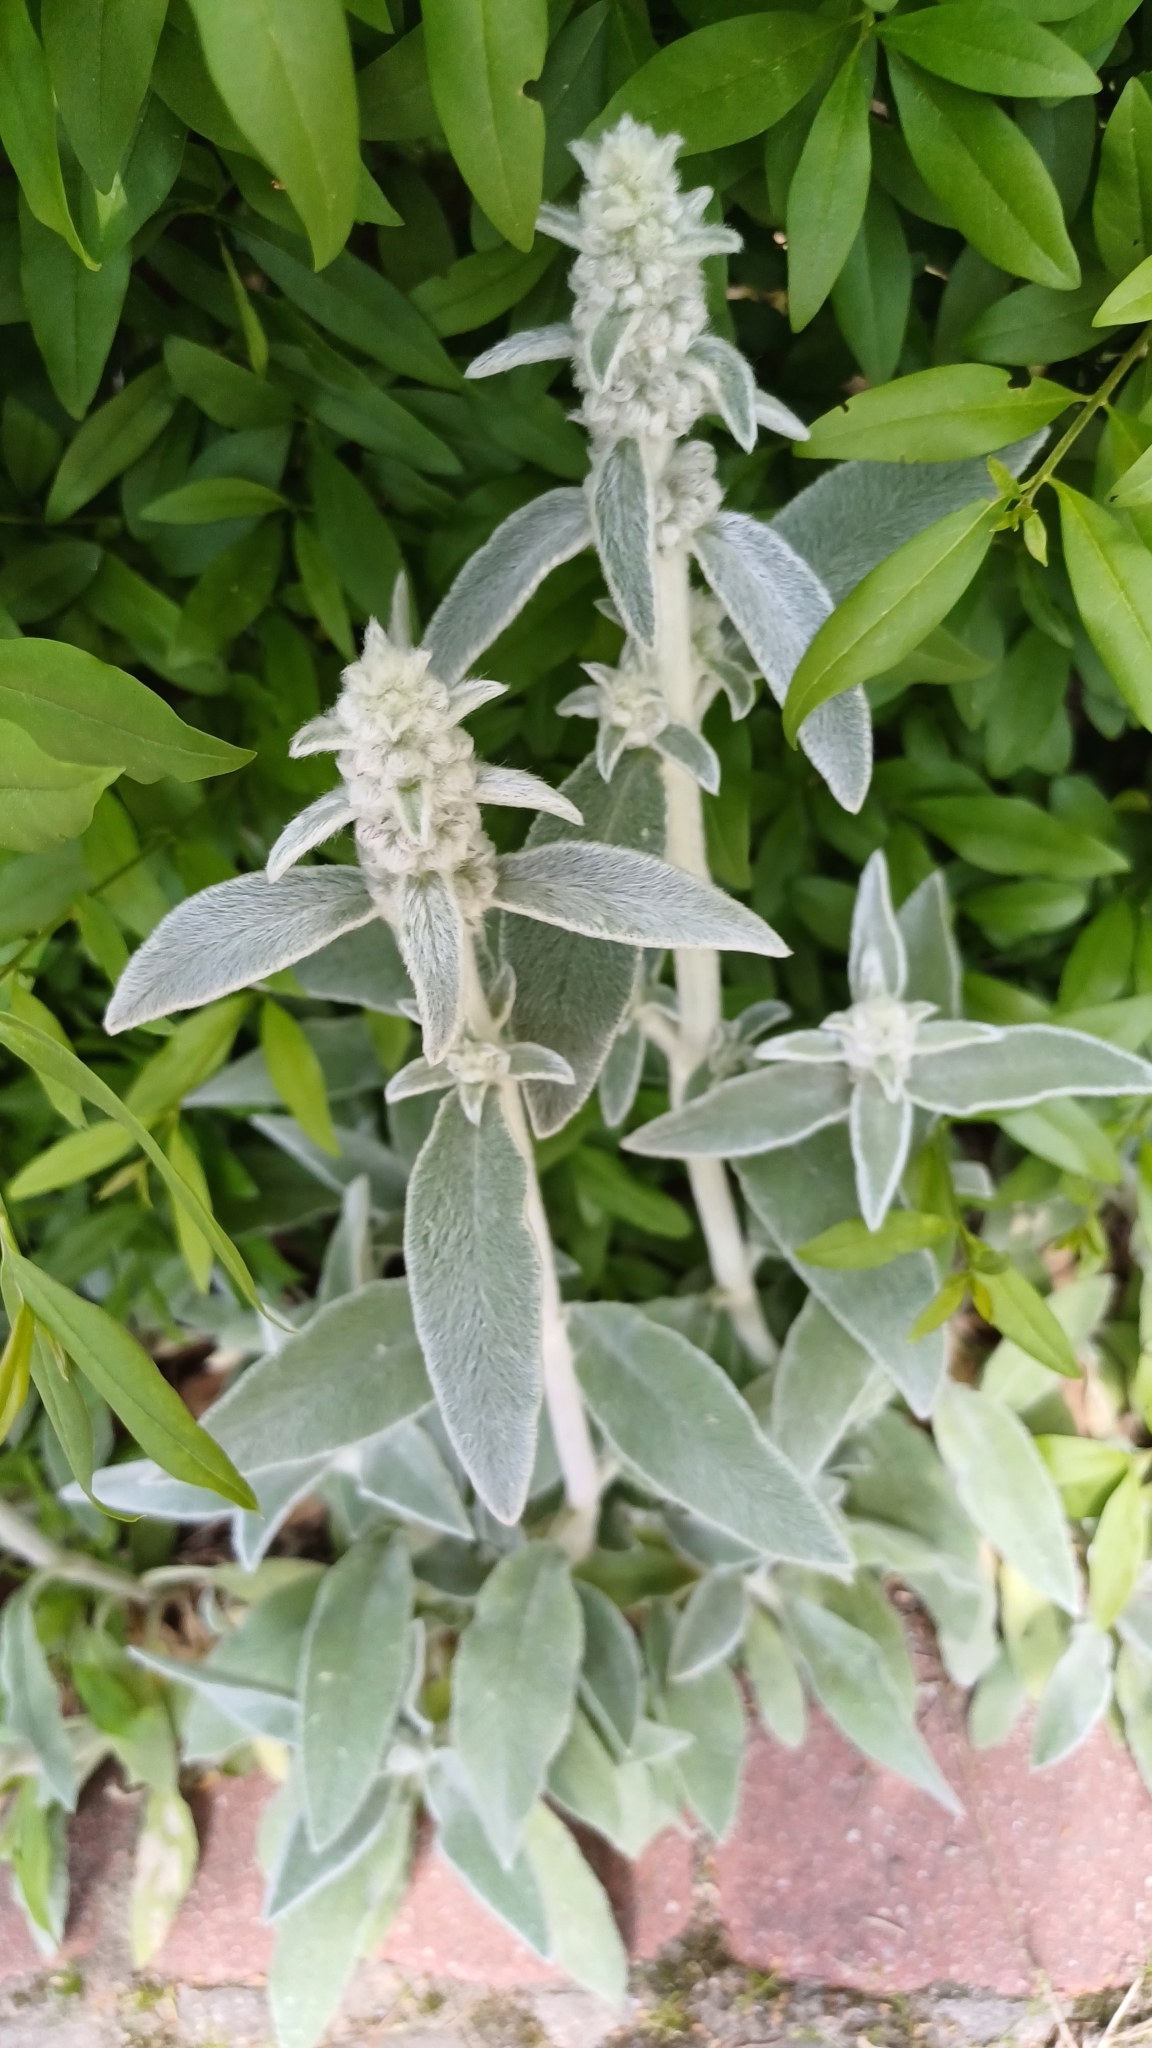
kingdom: Plantae
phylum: Tracheophyta
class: Magnoliopsida
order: Lamiales
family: Lamiaceae
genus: Stachys
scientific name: Stachys byzantina
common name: Lamb's-ear
